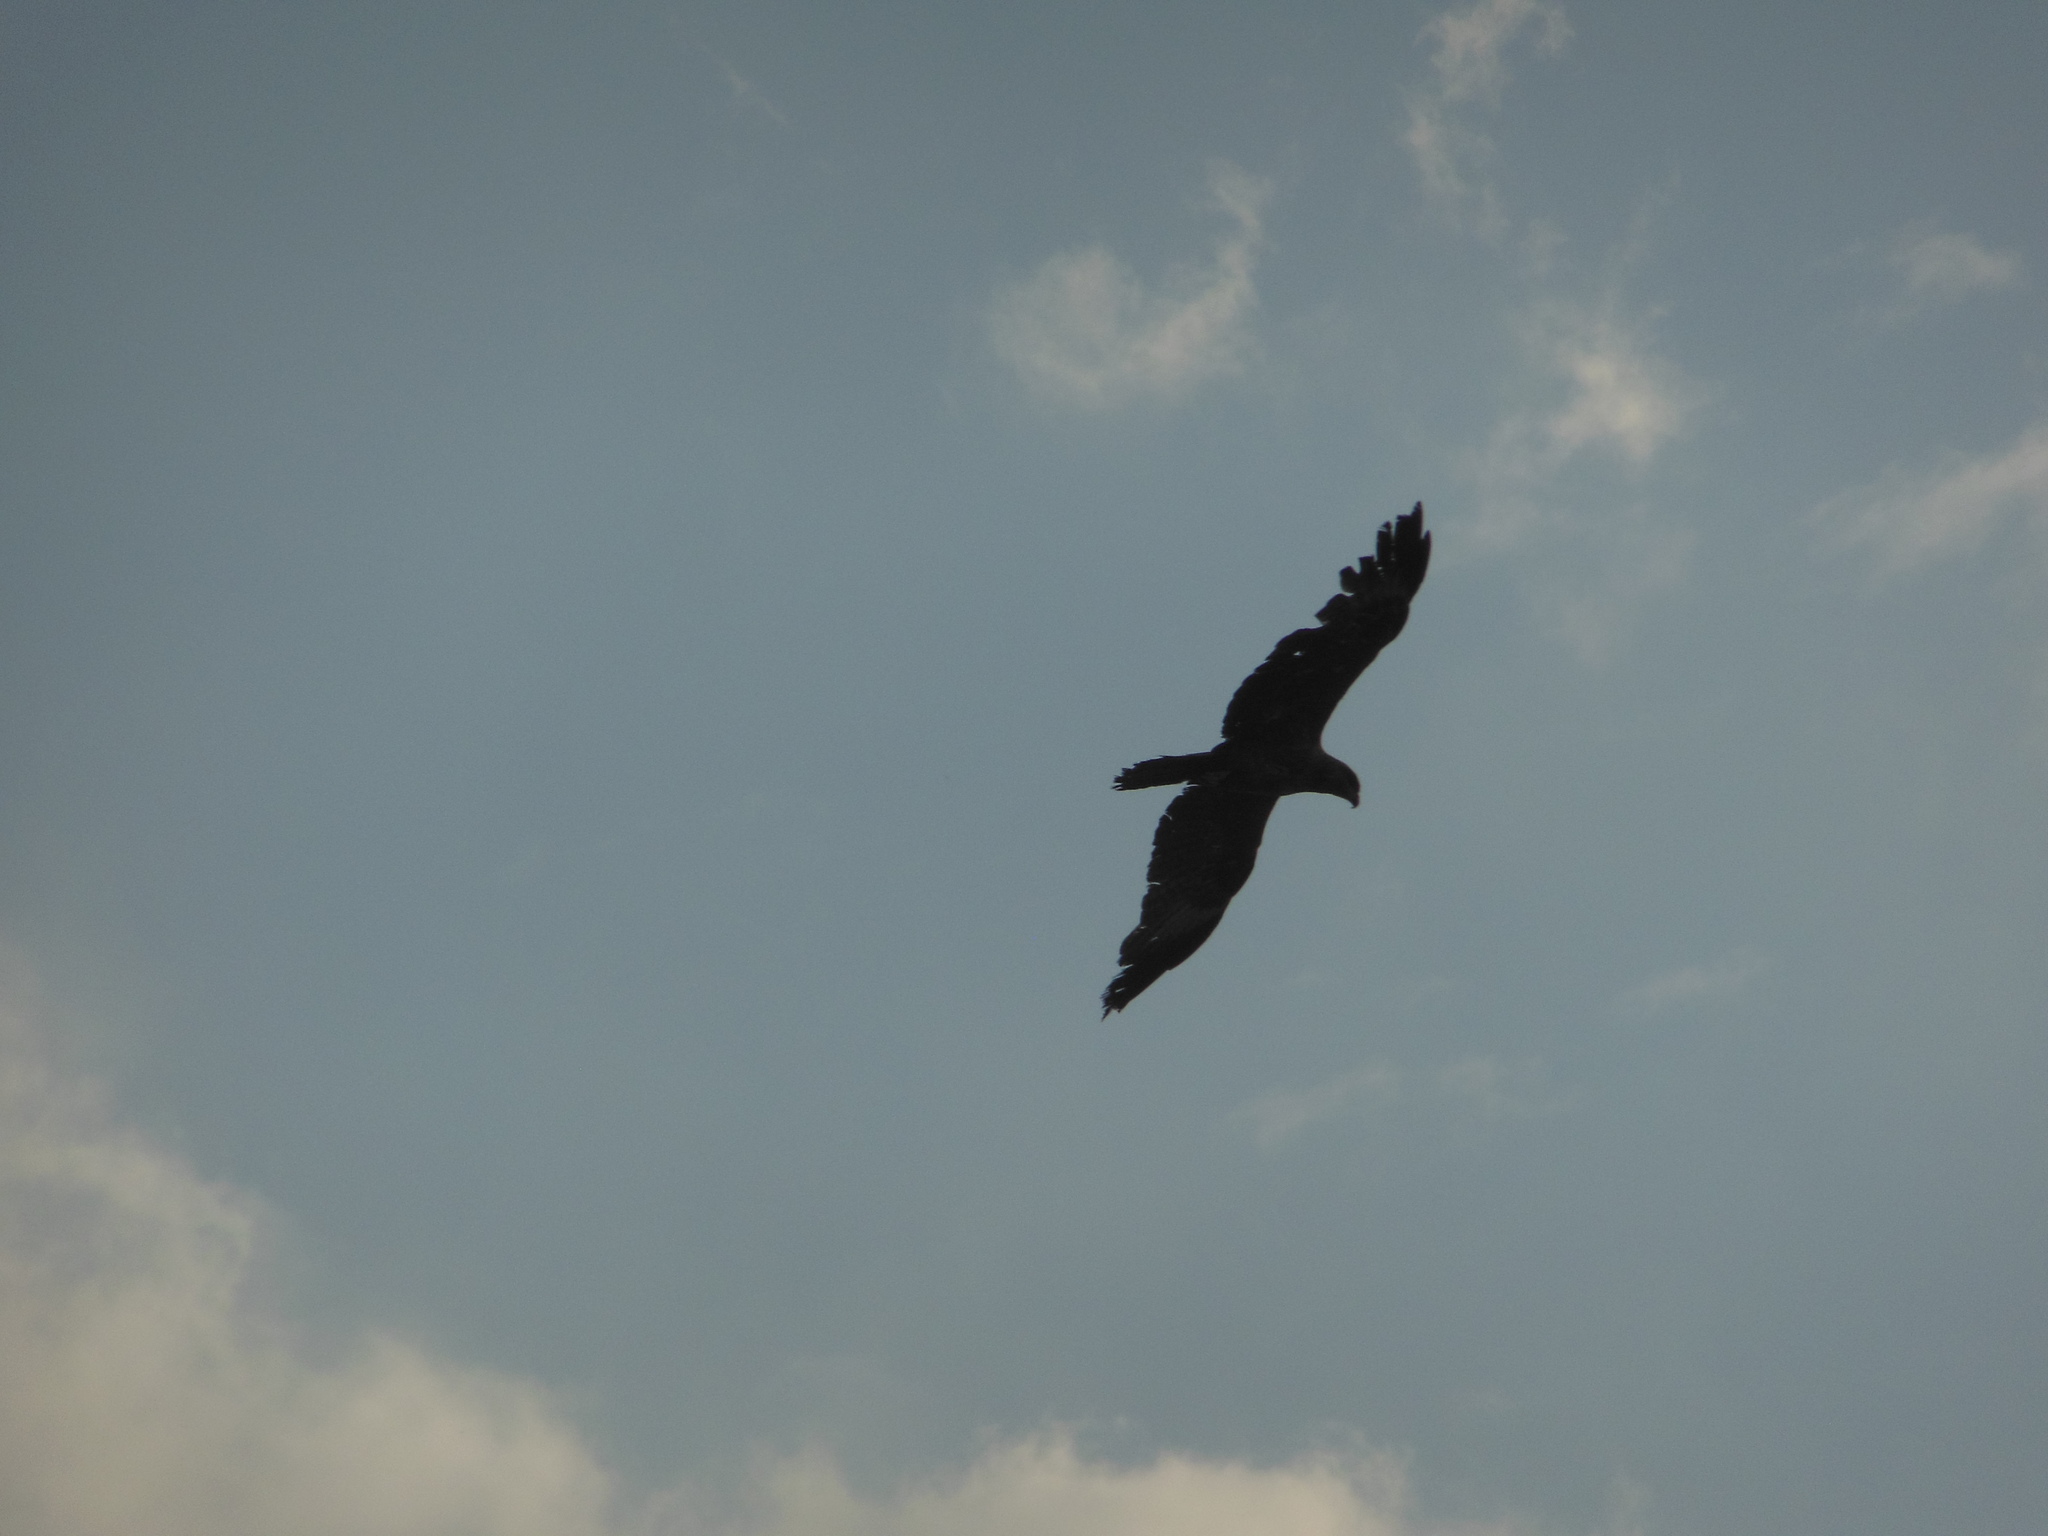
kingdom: Animalia
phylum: Chordata
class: Aves
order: Accipitriformes
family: Accipitridae
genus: Milvus
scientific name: Milvus migrans
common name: Black kite
